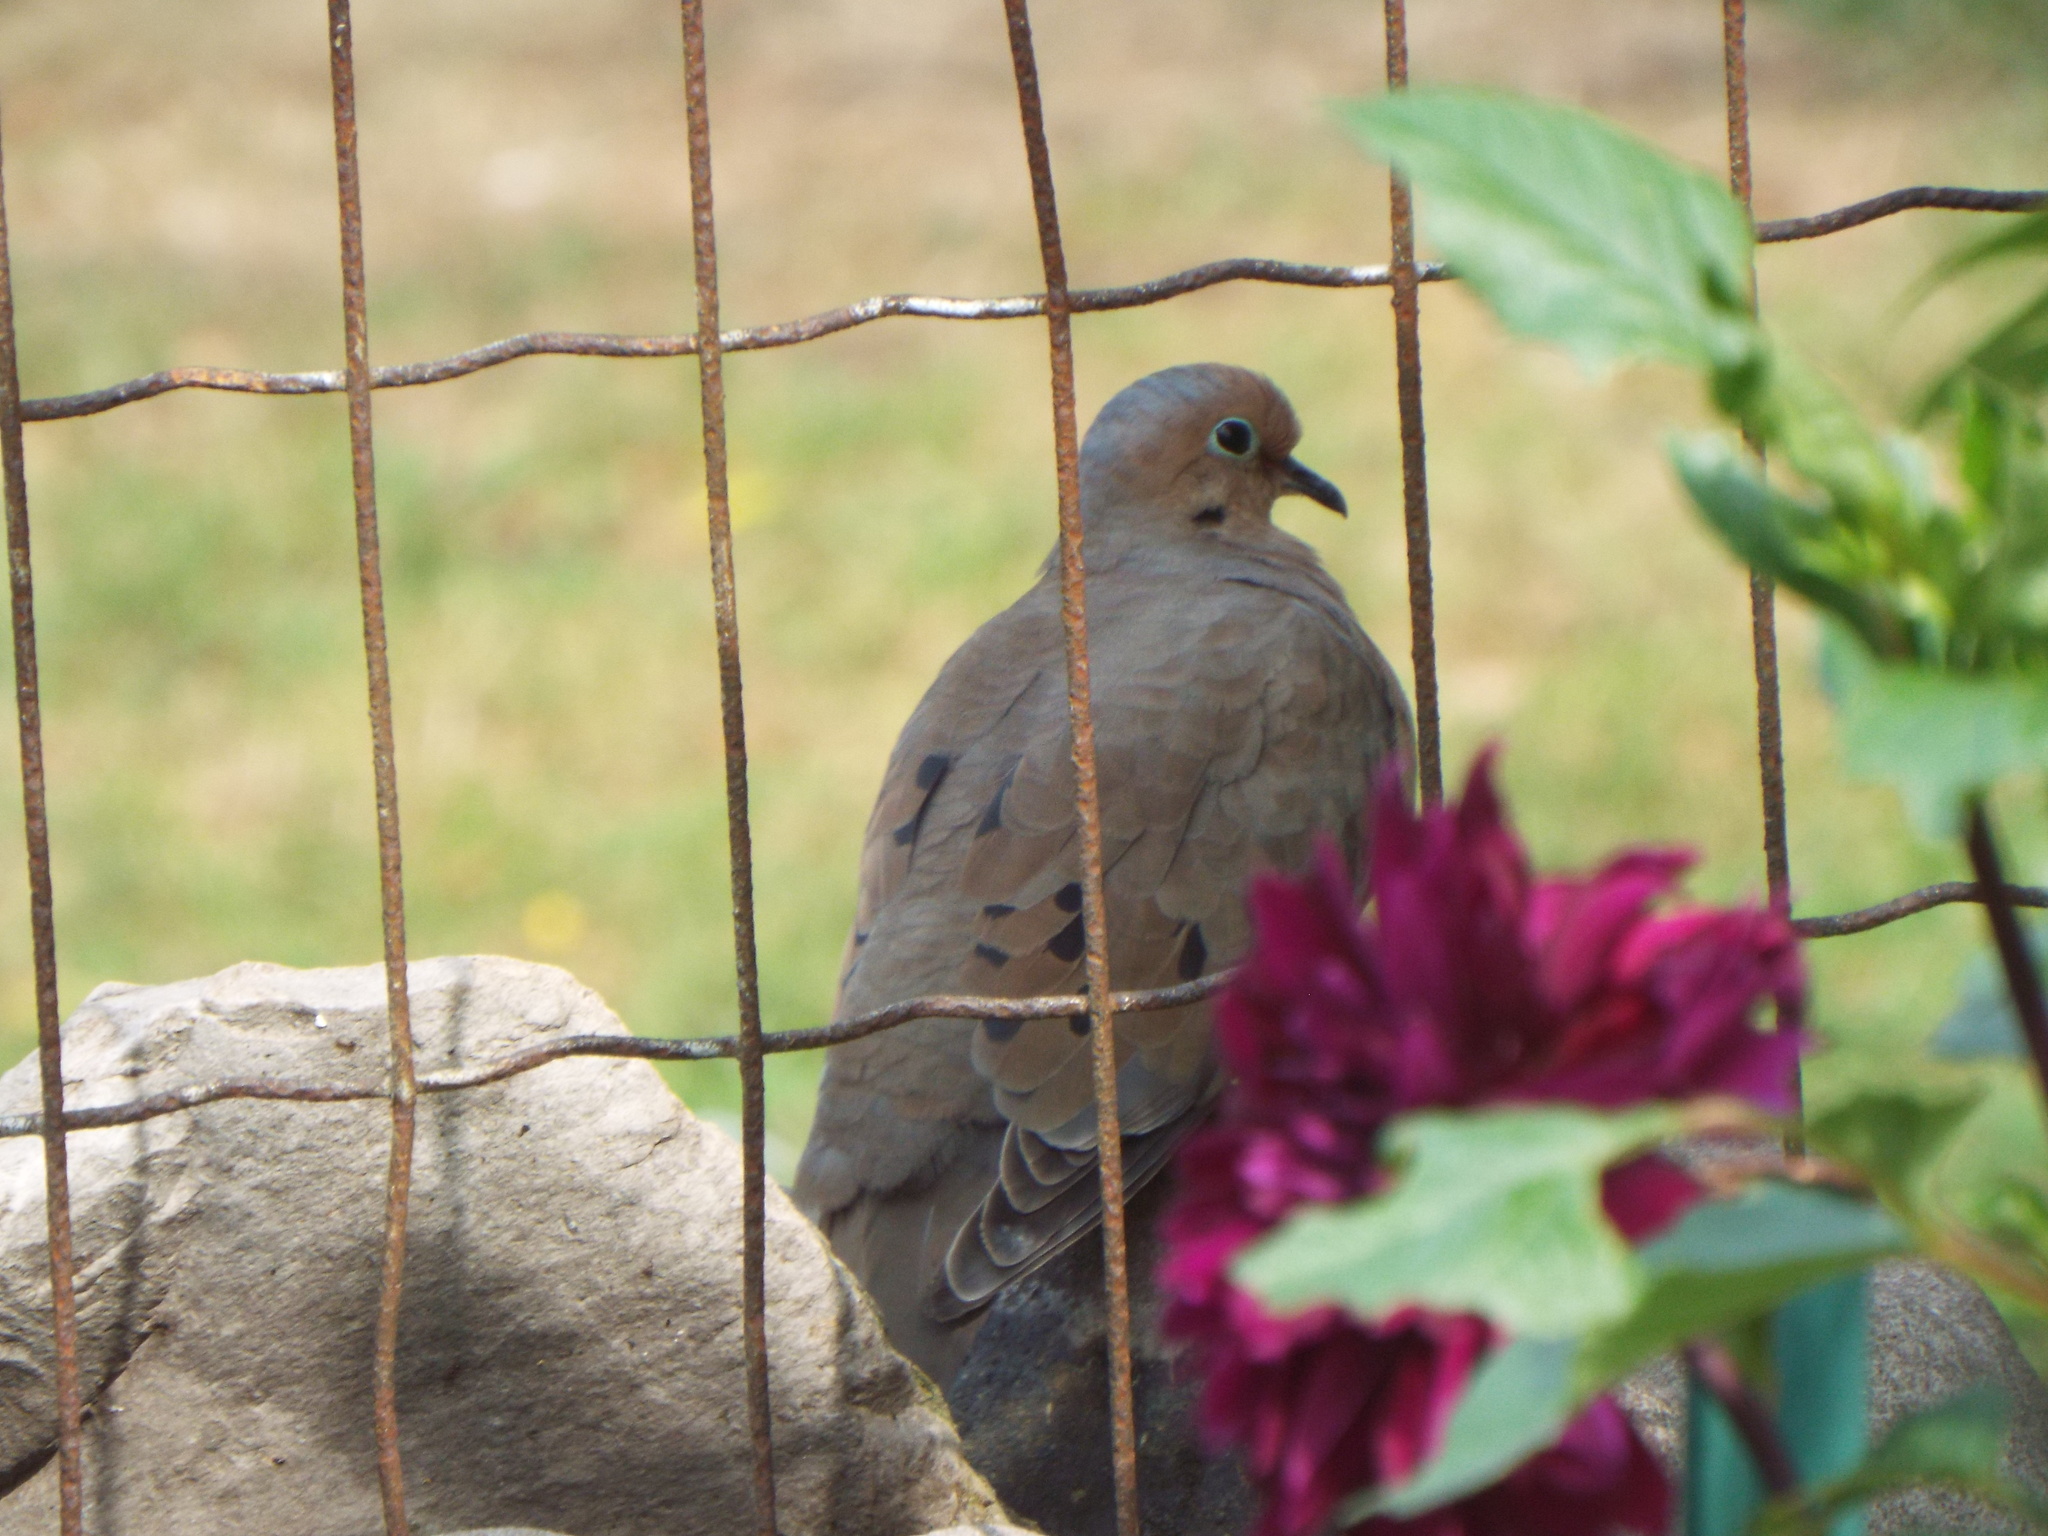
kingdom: Animalia
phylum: Chordata
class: Aves
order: Columbiformes
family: Columbidae
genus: Zenaida
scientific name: Zenaida macroura
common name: Mourning dove
